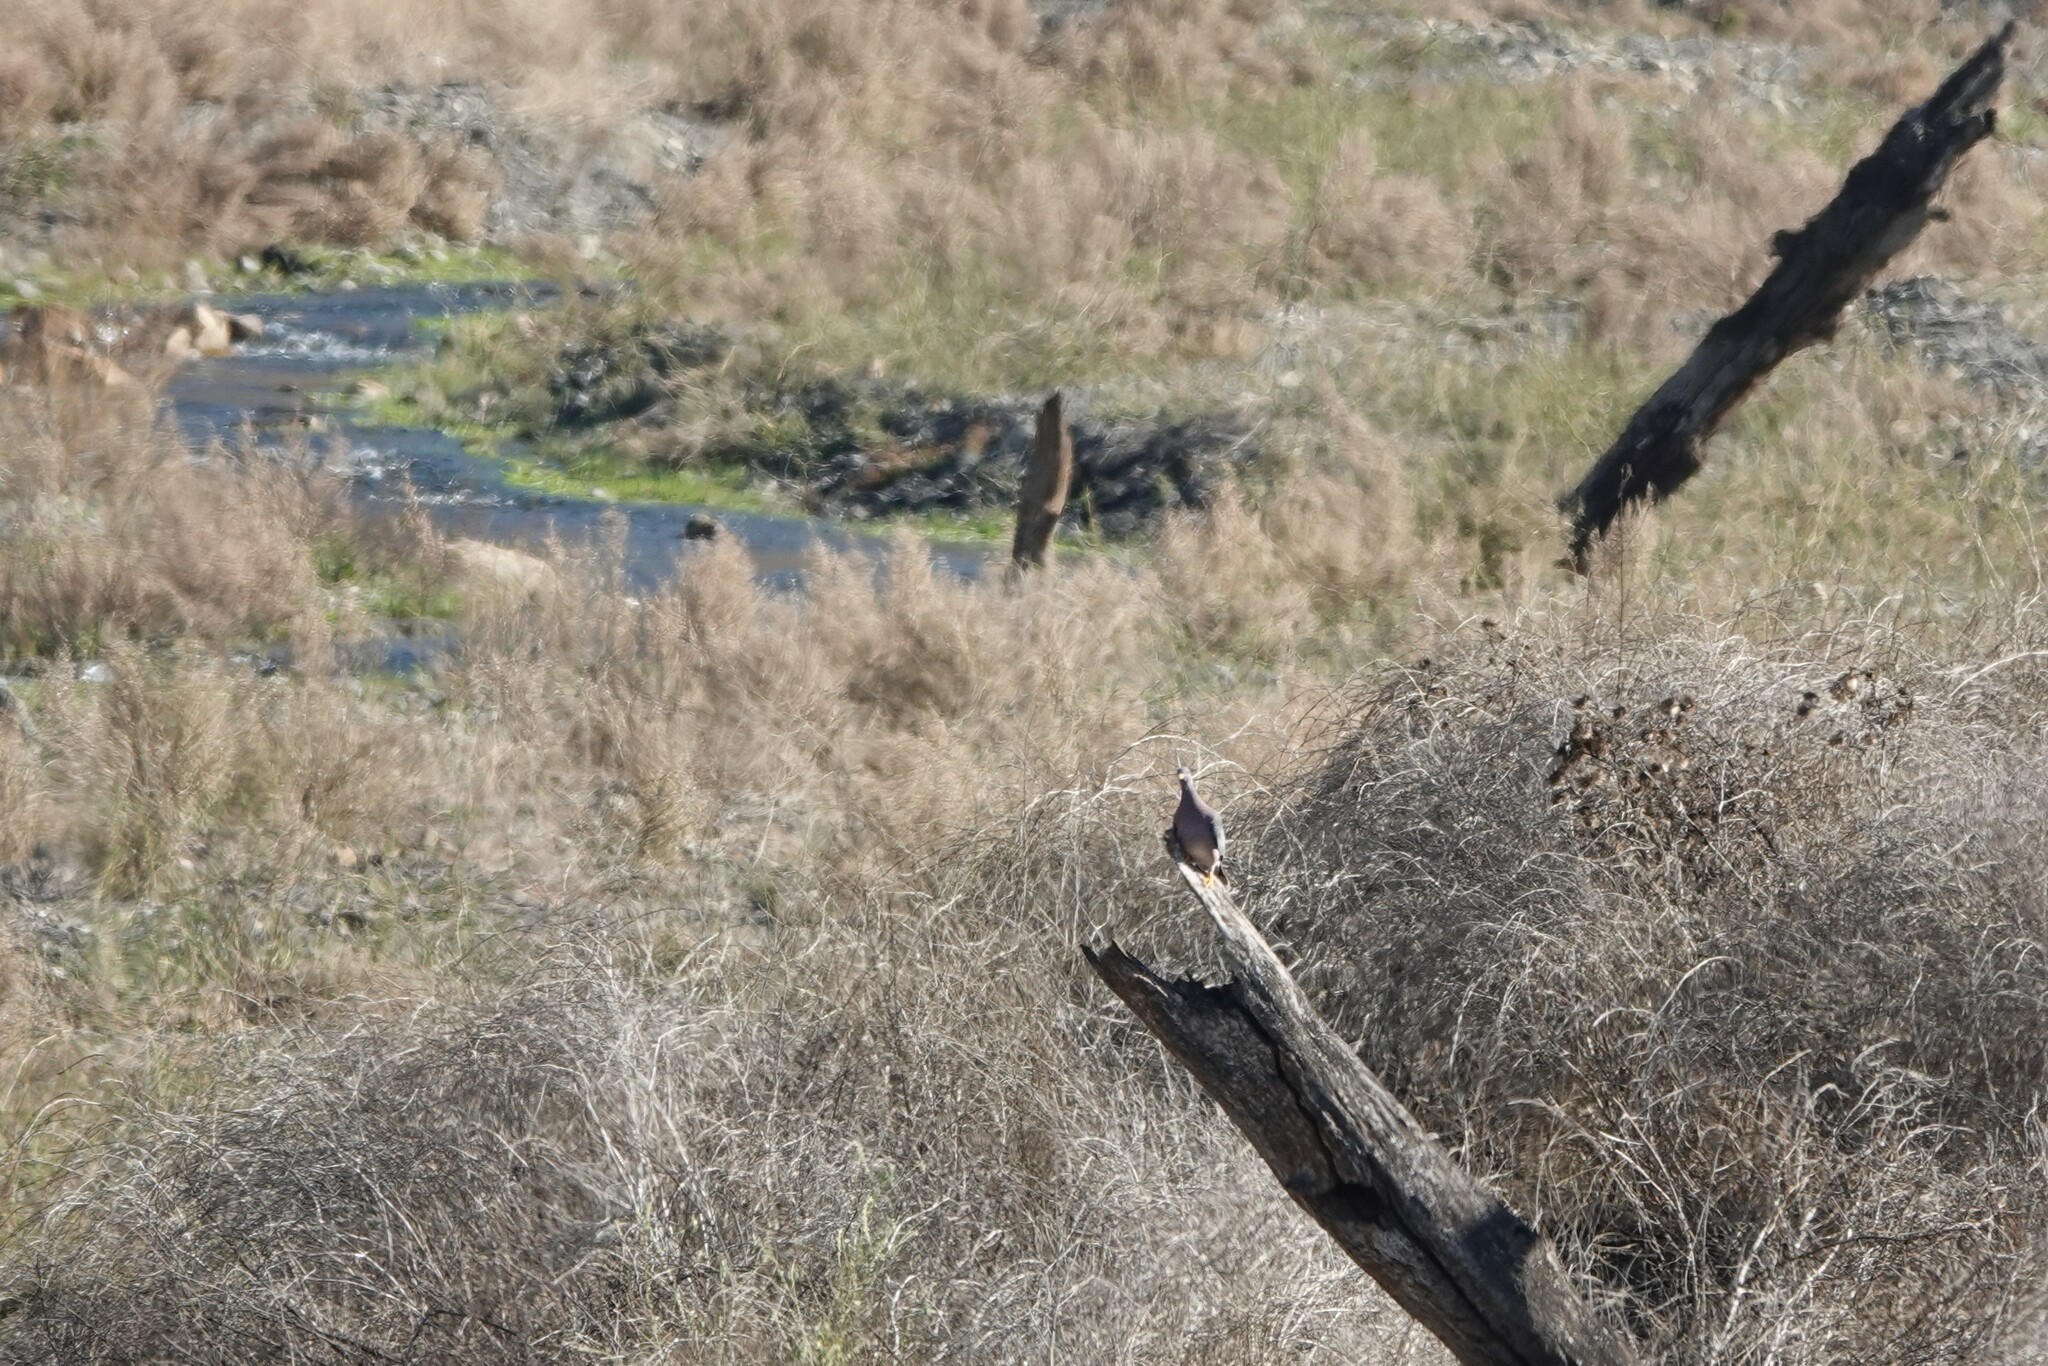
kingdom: Animalia
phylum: Chordata
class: Aves
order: Columbiformes
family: Columbidae
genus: Zenaida
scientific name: Zenaida macroura
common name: Mourning dove
